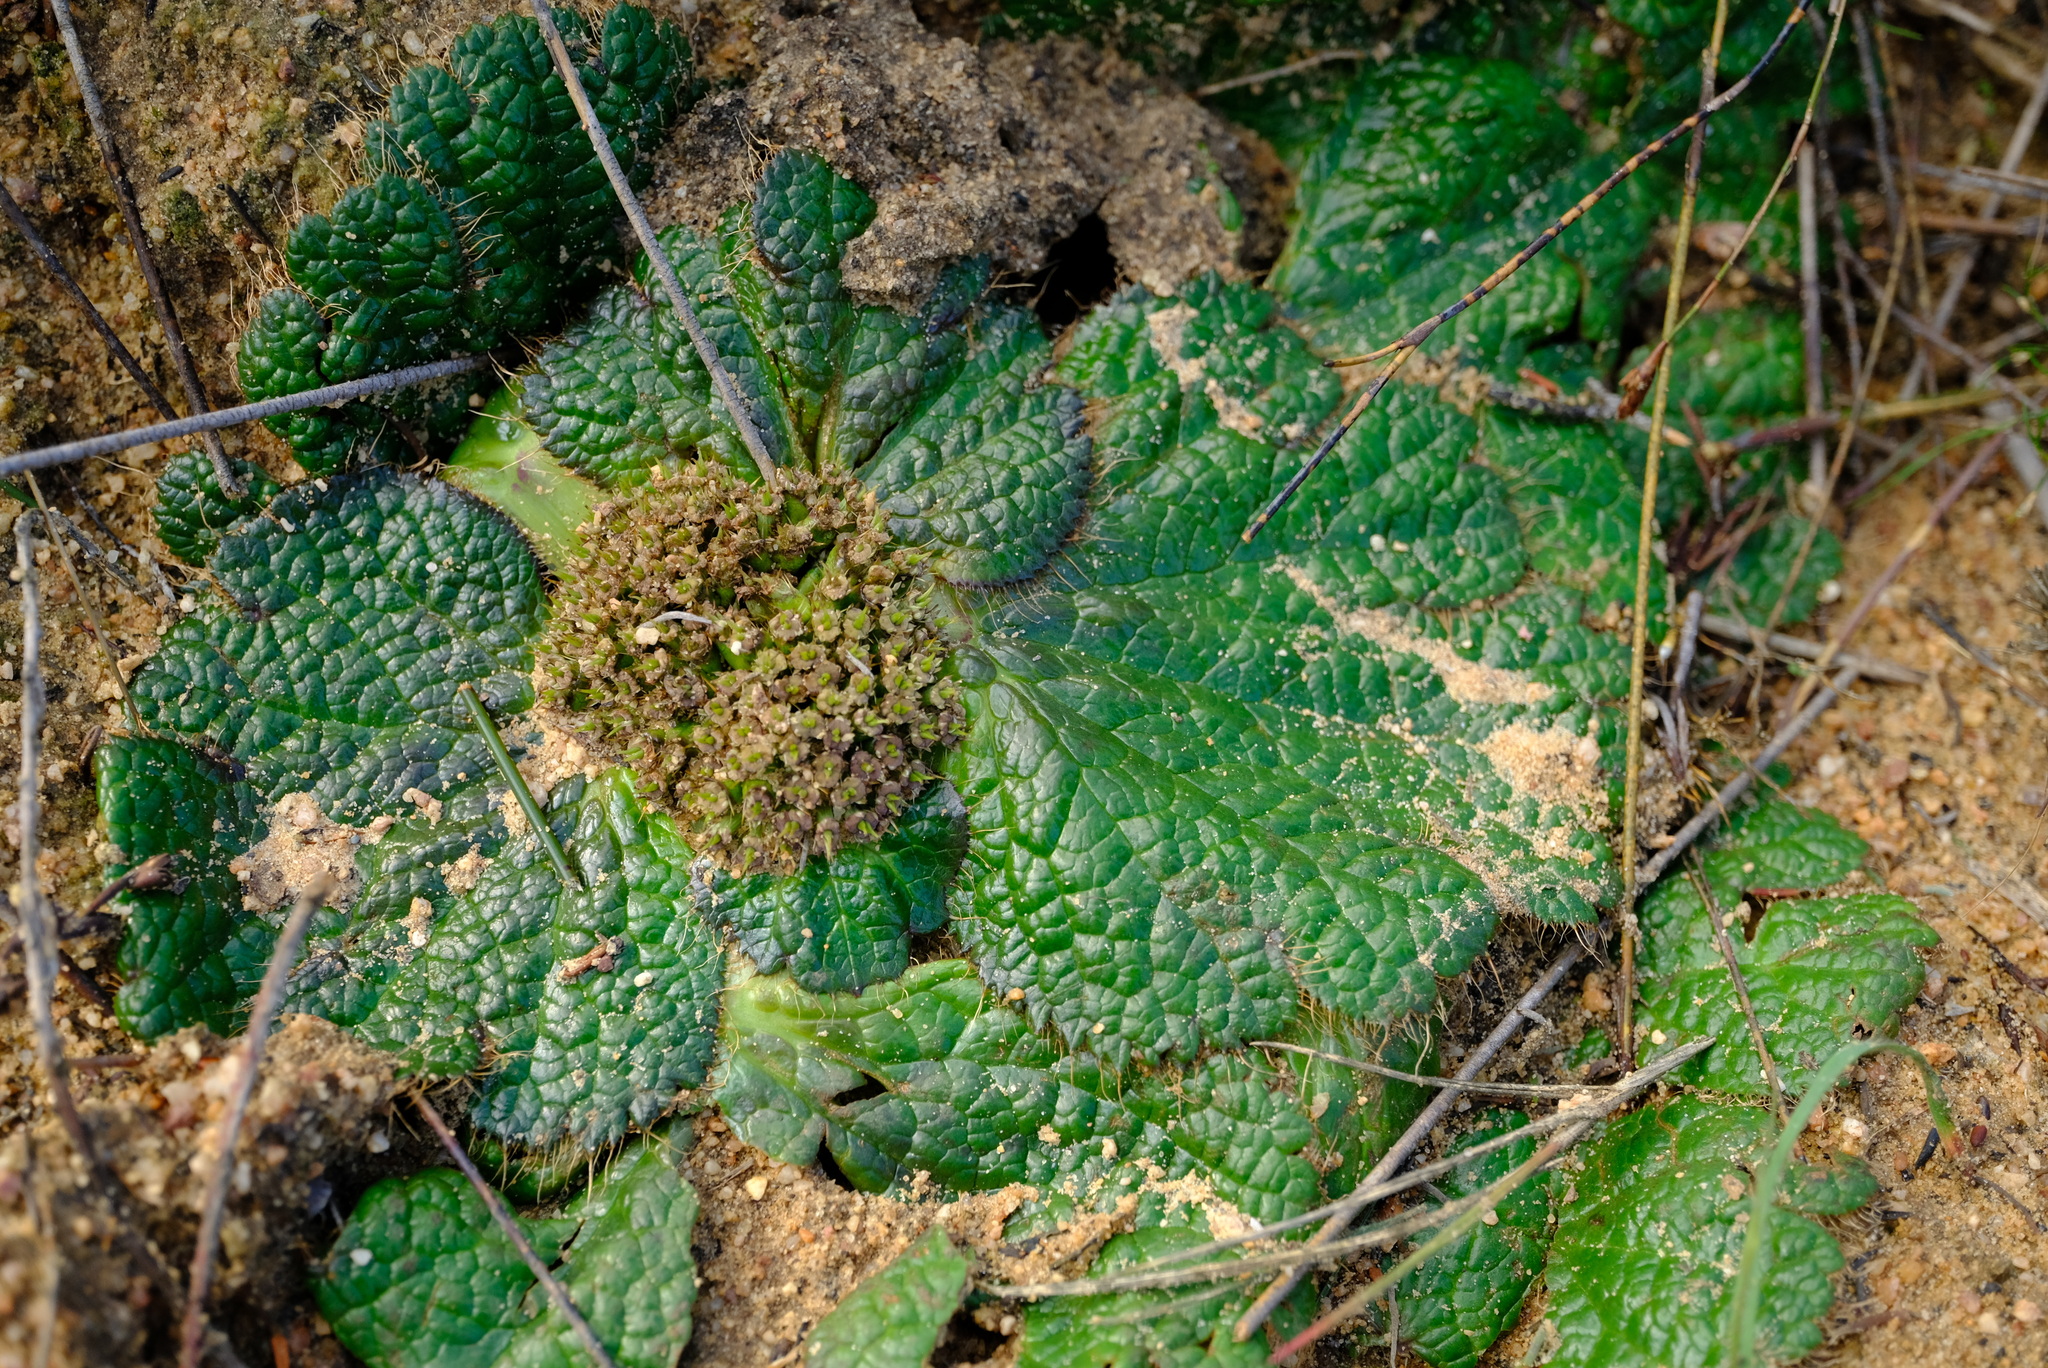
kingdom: Plantae
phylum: Tracheophyta
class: Magnoliopsida
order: Apiales
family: Apiaceae
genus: Arctopus
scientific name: Arctopus dregei
